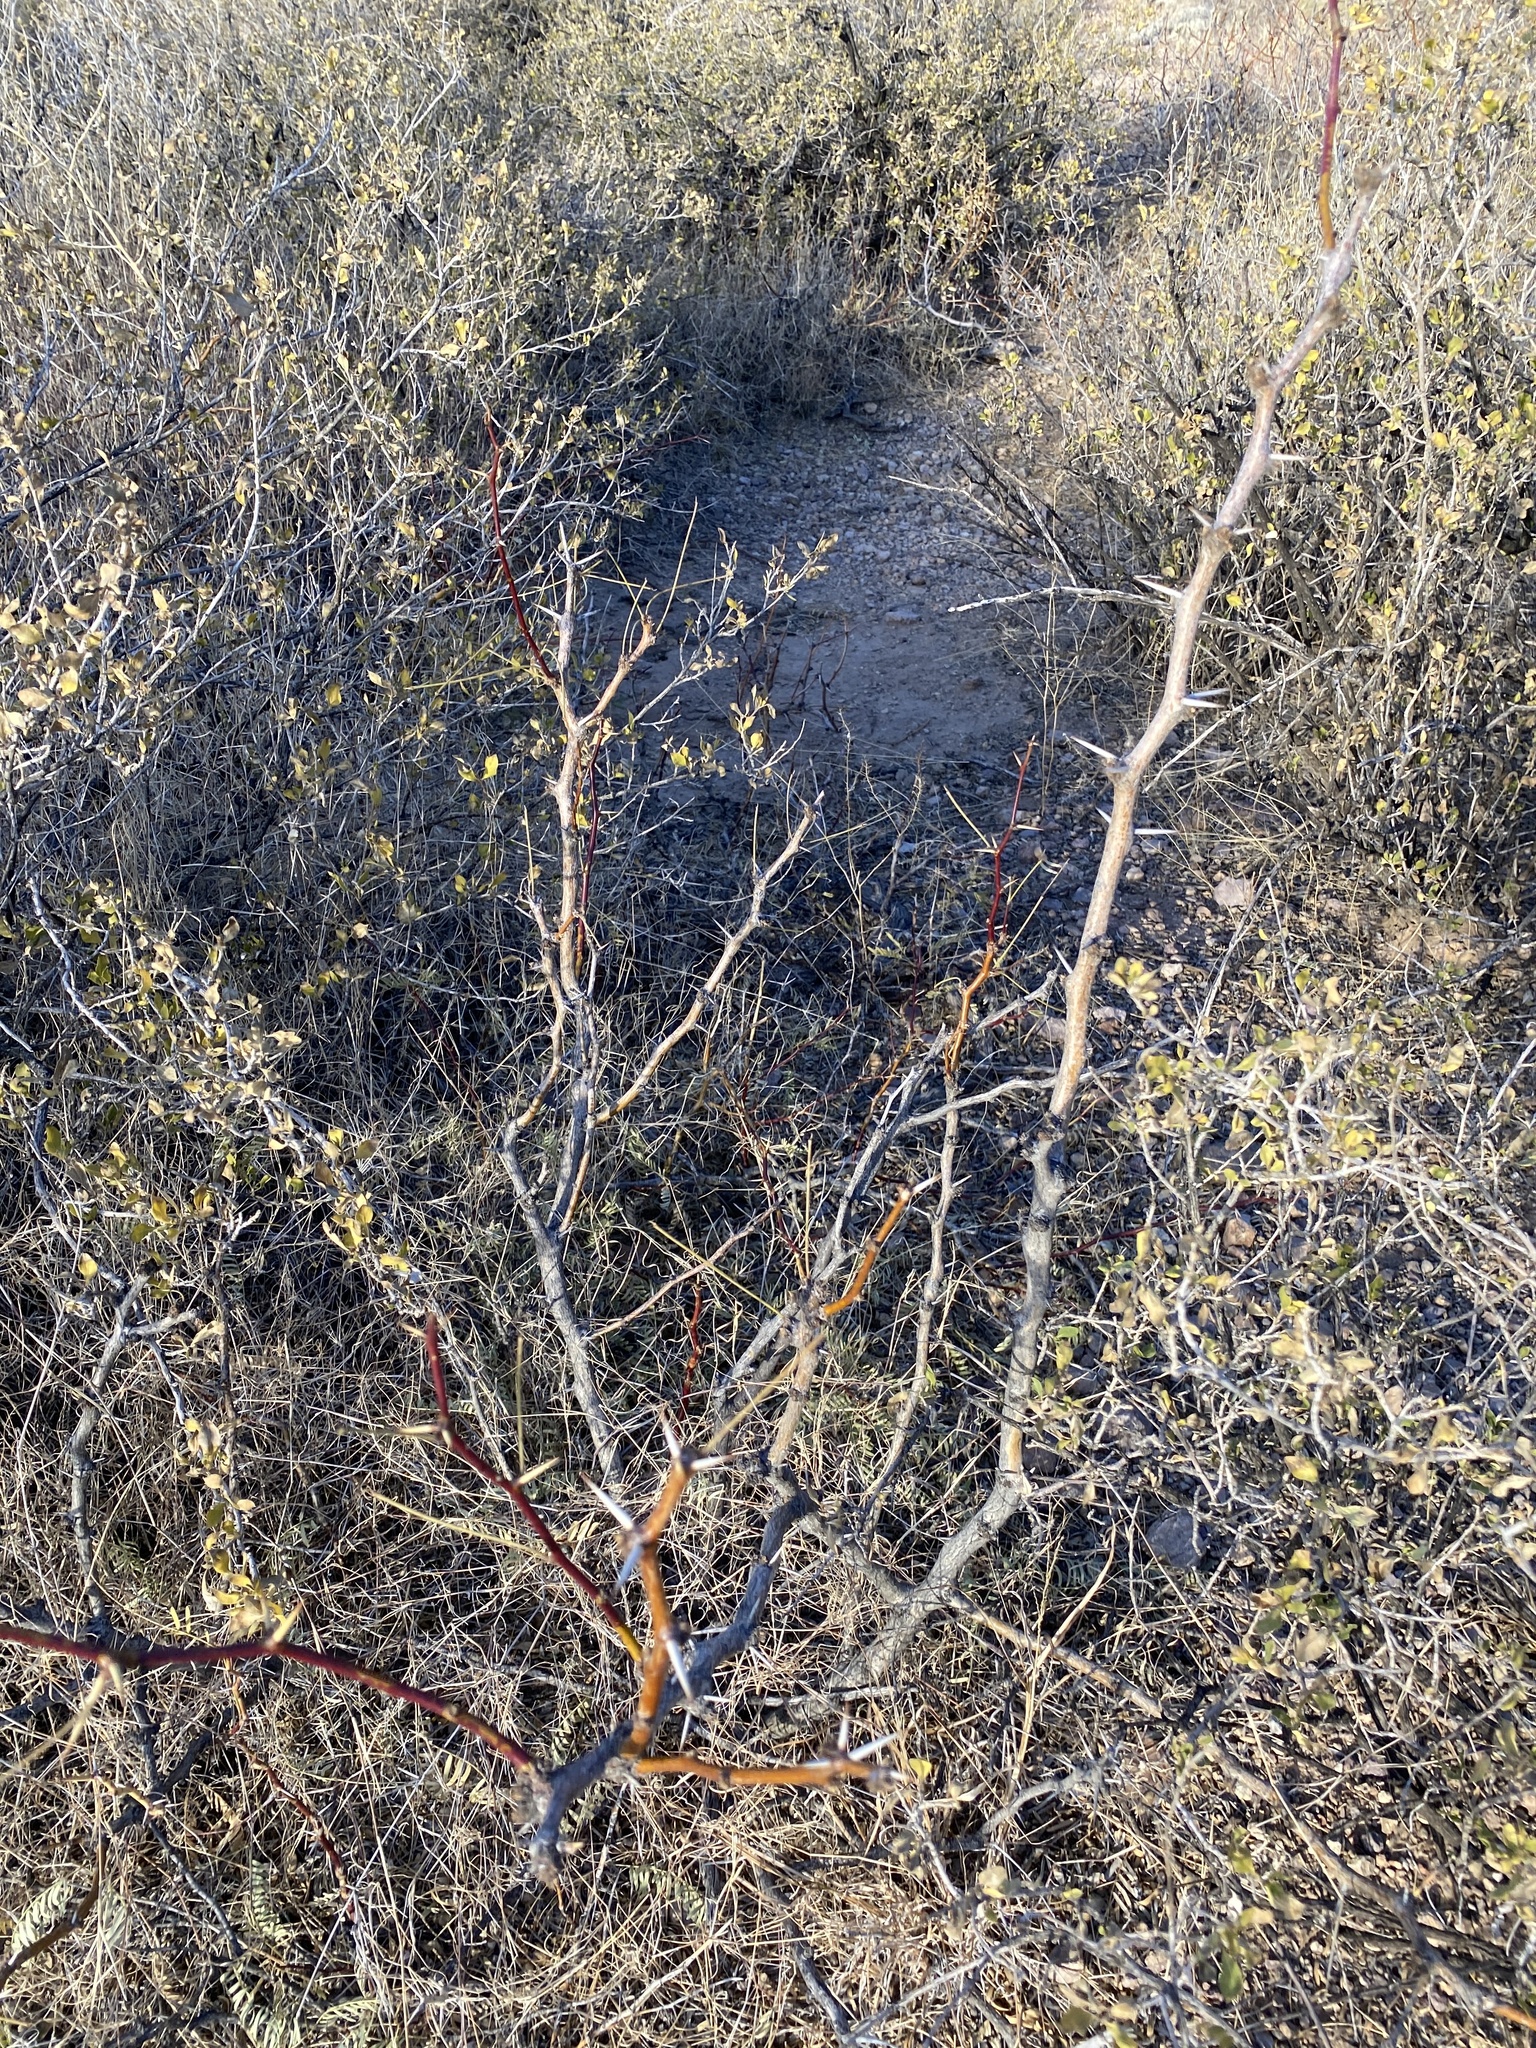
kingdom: Plantae
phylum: Tracheophyta
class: Magnoliopsida
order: Fabales
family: Fabaceae
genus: Vachellia
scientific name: Vachellia constricta
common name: Mescat acacia
